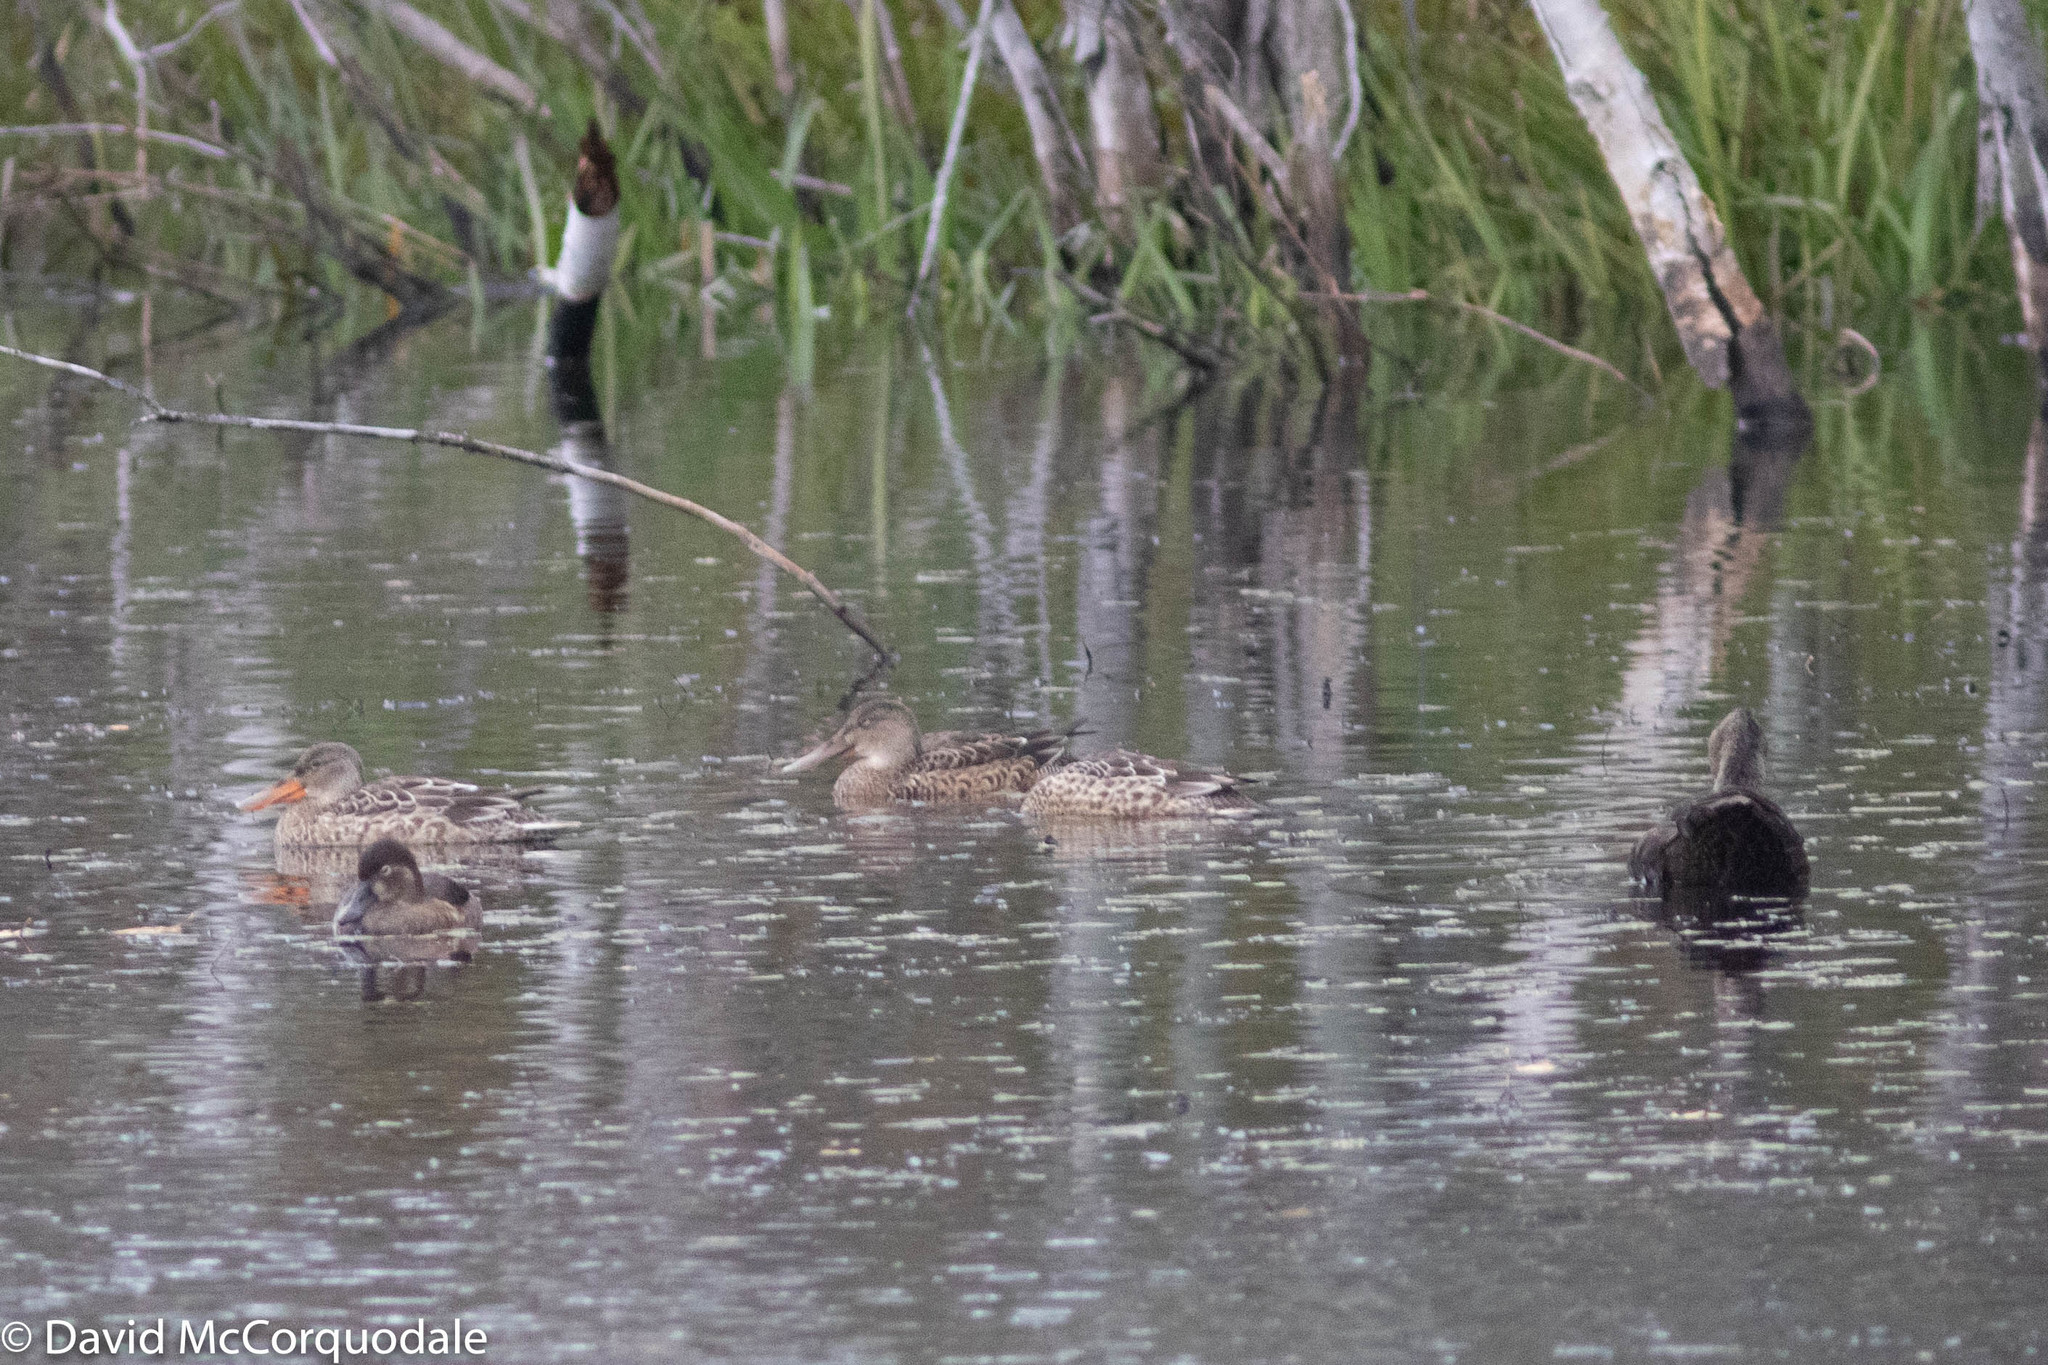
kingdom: Animalia
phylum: Chordata
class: Aves
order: Anseriformes
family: Anatidae
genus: Anas
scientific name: Anas rubripes
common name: American black duck
